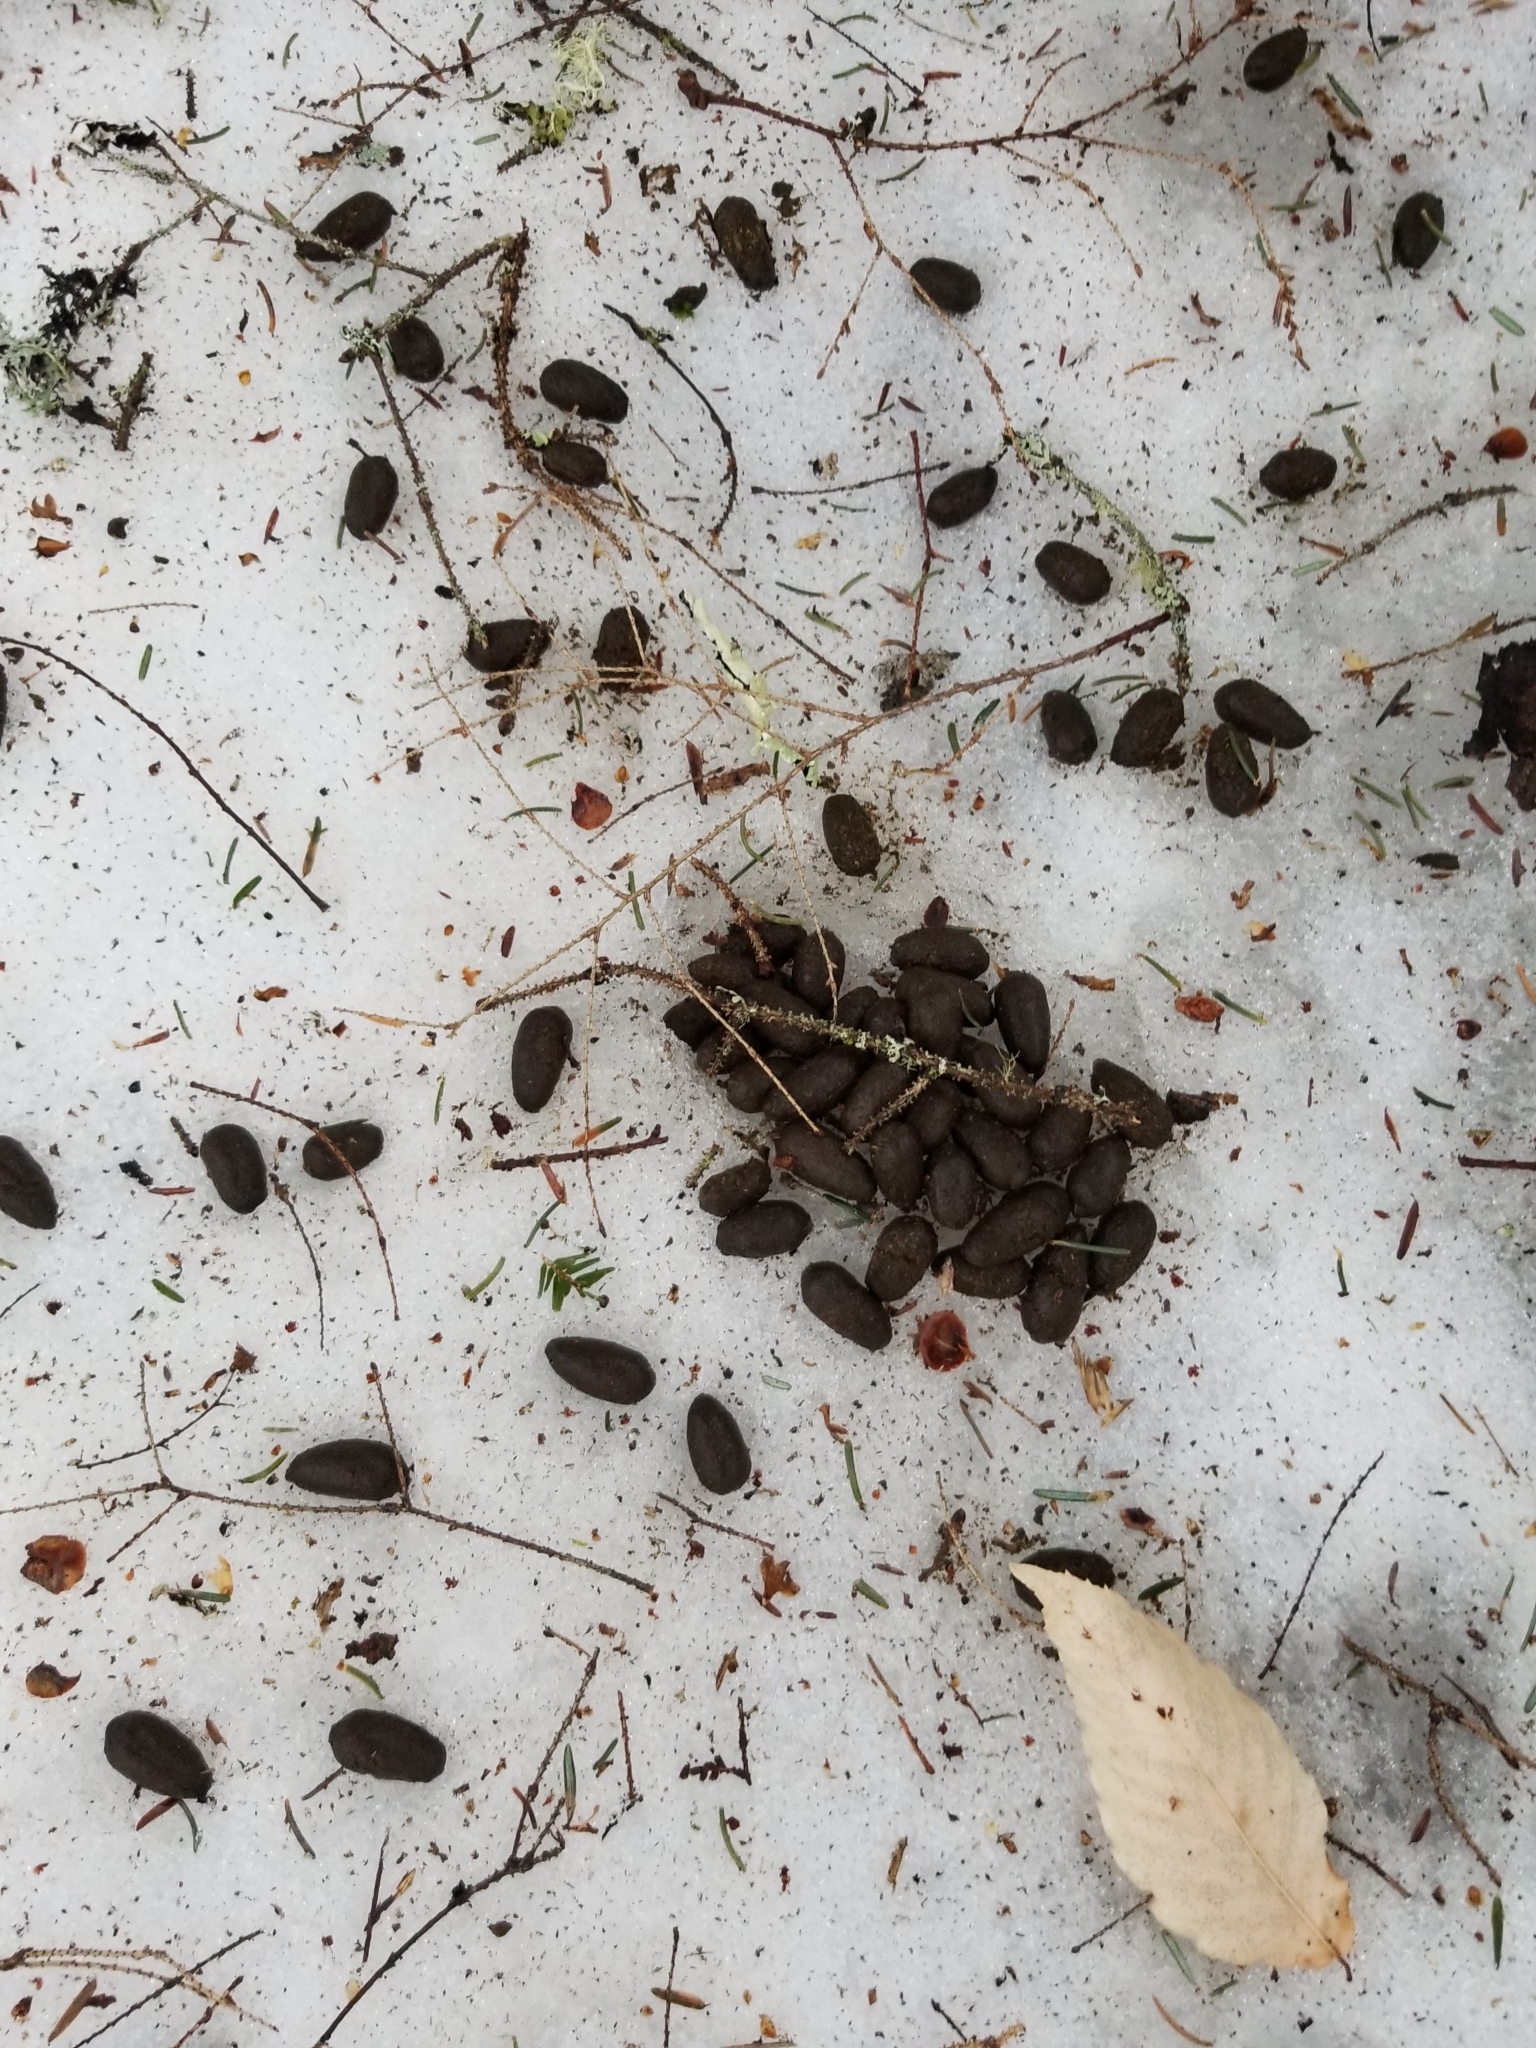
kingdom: Animalia
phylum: Chordata
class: Mammalia
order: Artiodactyla
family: Cervidae
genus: Odocoileus
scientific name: Odocoileus virginianus
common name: White-tailed deer
